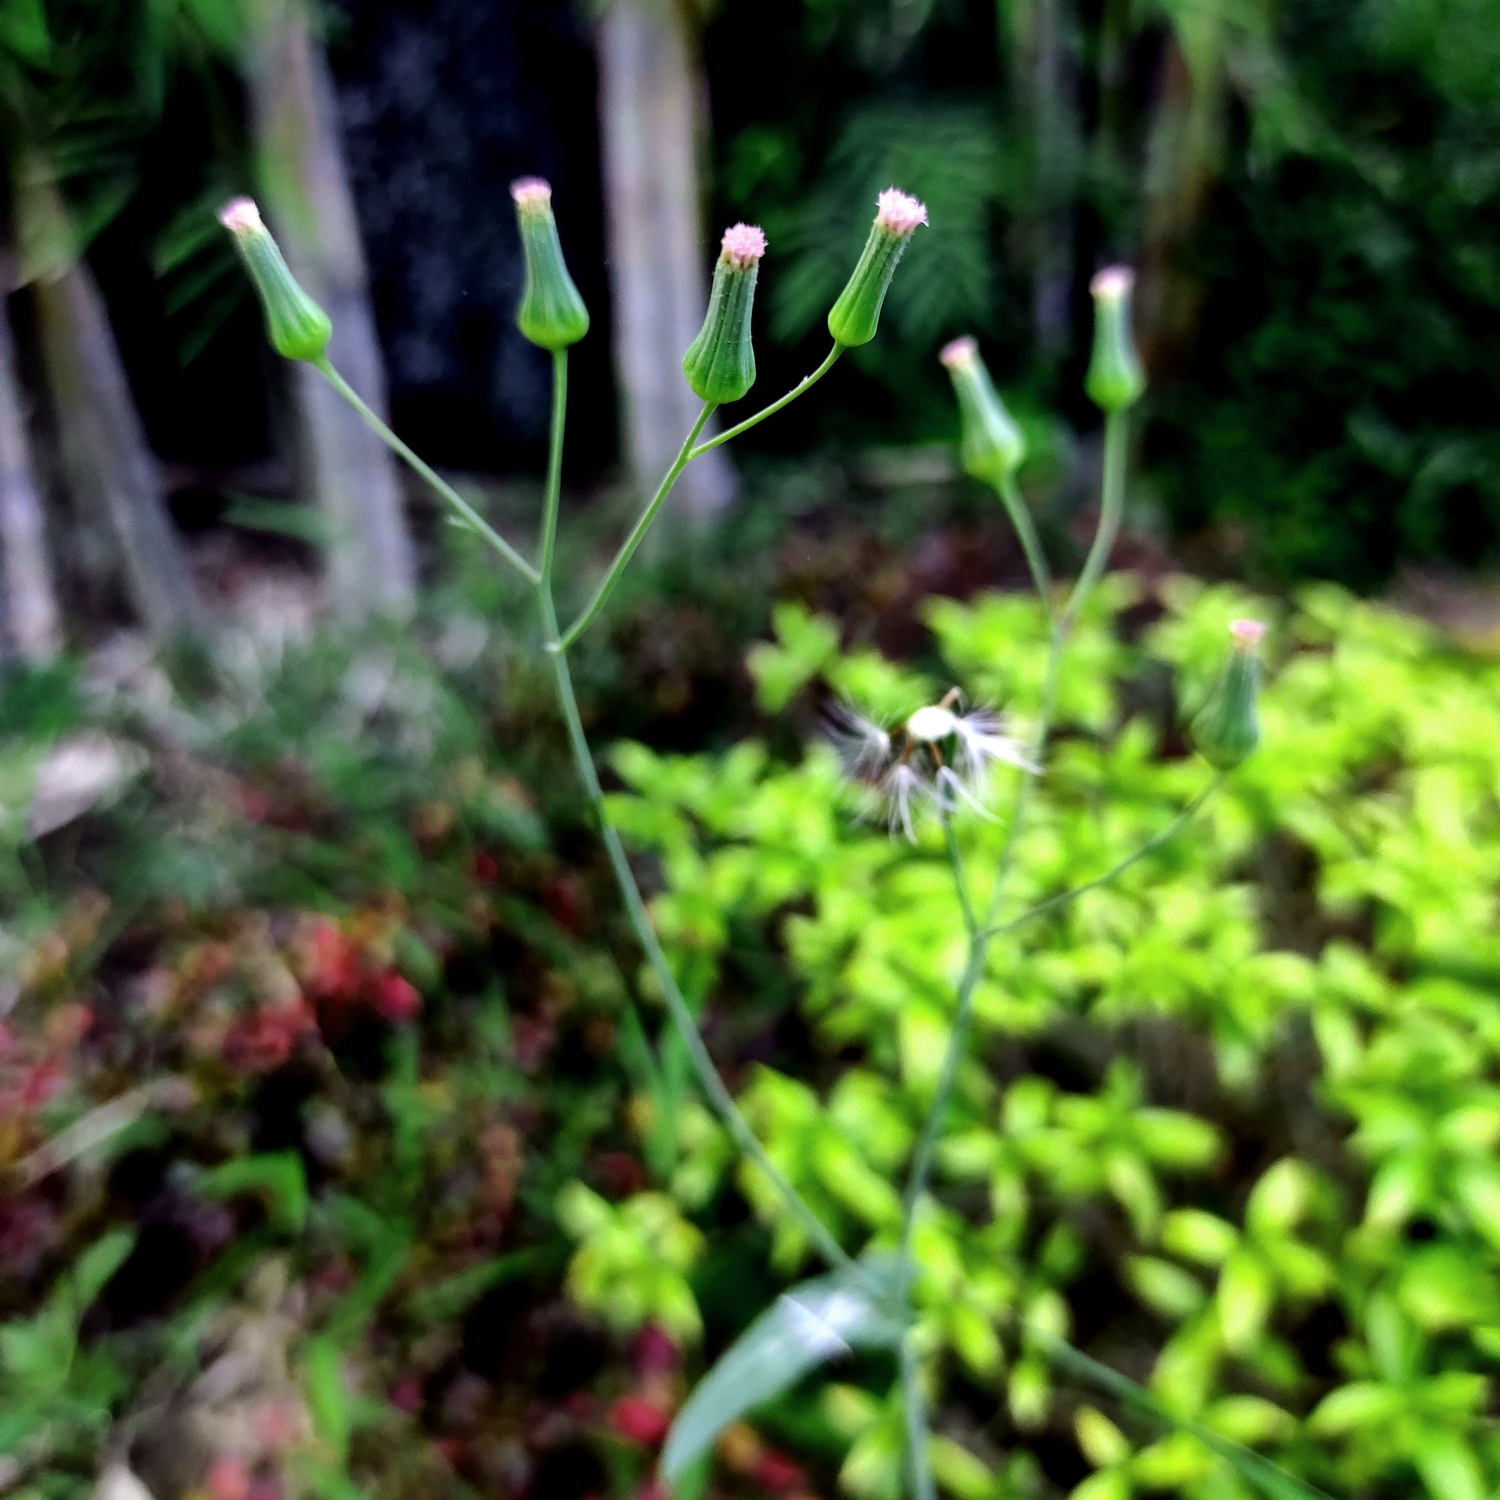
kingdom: Plantae
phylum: Tracheophyta
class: Magnoliopsida
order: Asterales
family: Asteraceae
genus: Emilia
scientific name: Emilia sonchifolia
